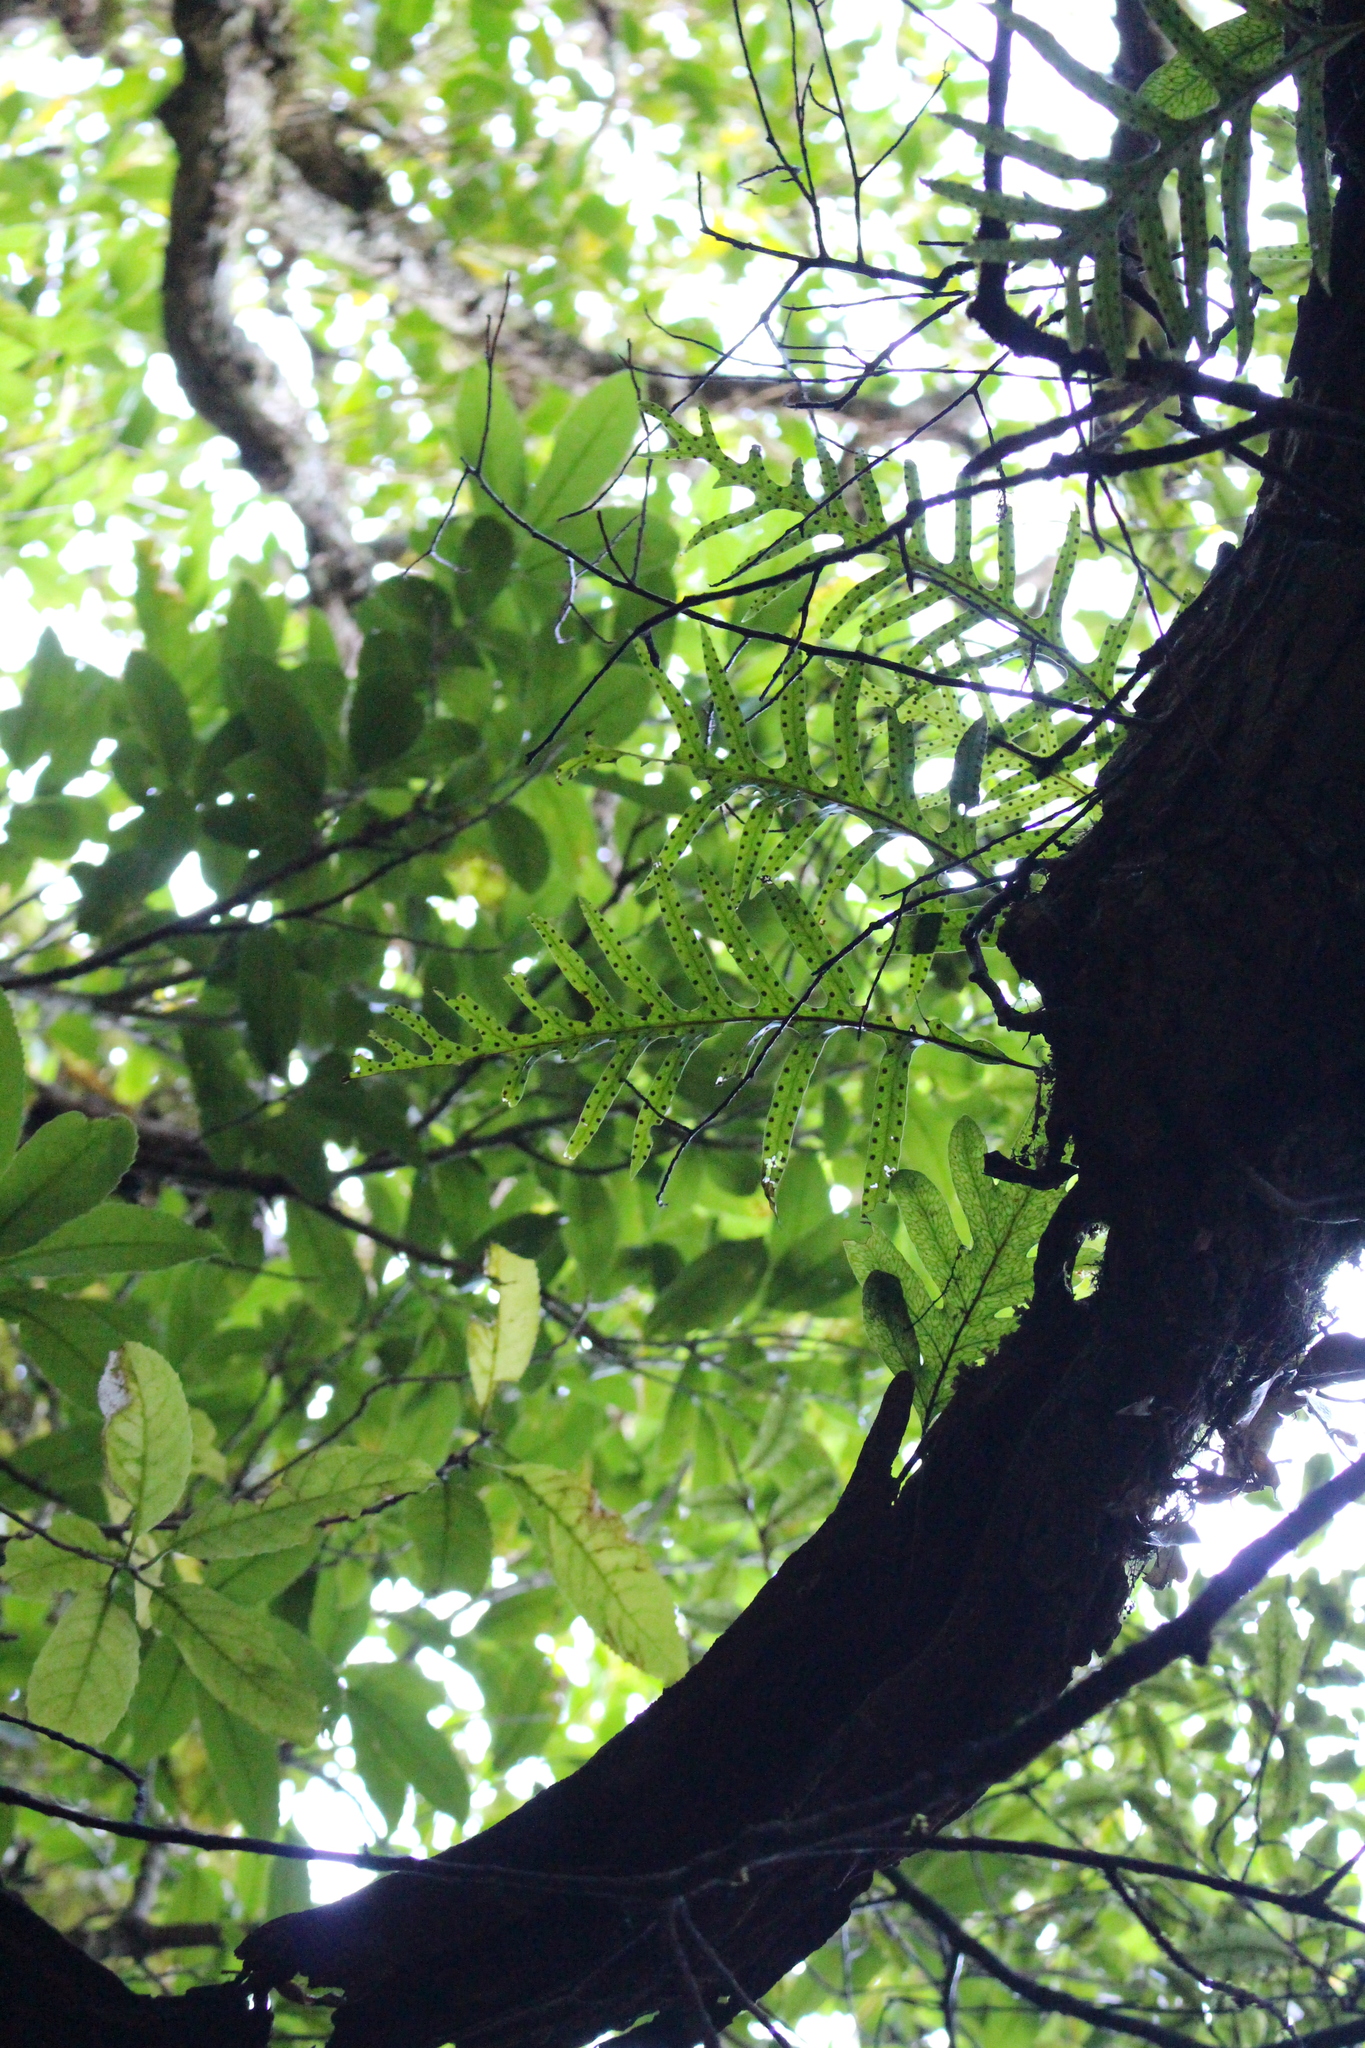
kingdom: Plantae
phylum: Tracheophyta
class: Polypodiopsida
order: Polypodiales
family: Polypodiaceae
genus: Lecanopteris
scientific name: Lecanopteris pustulata
